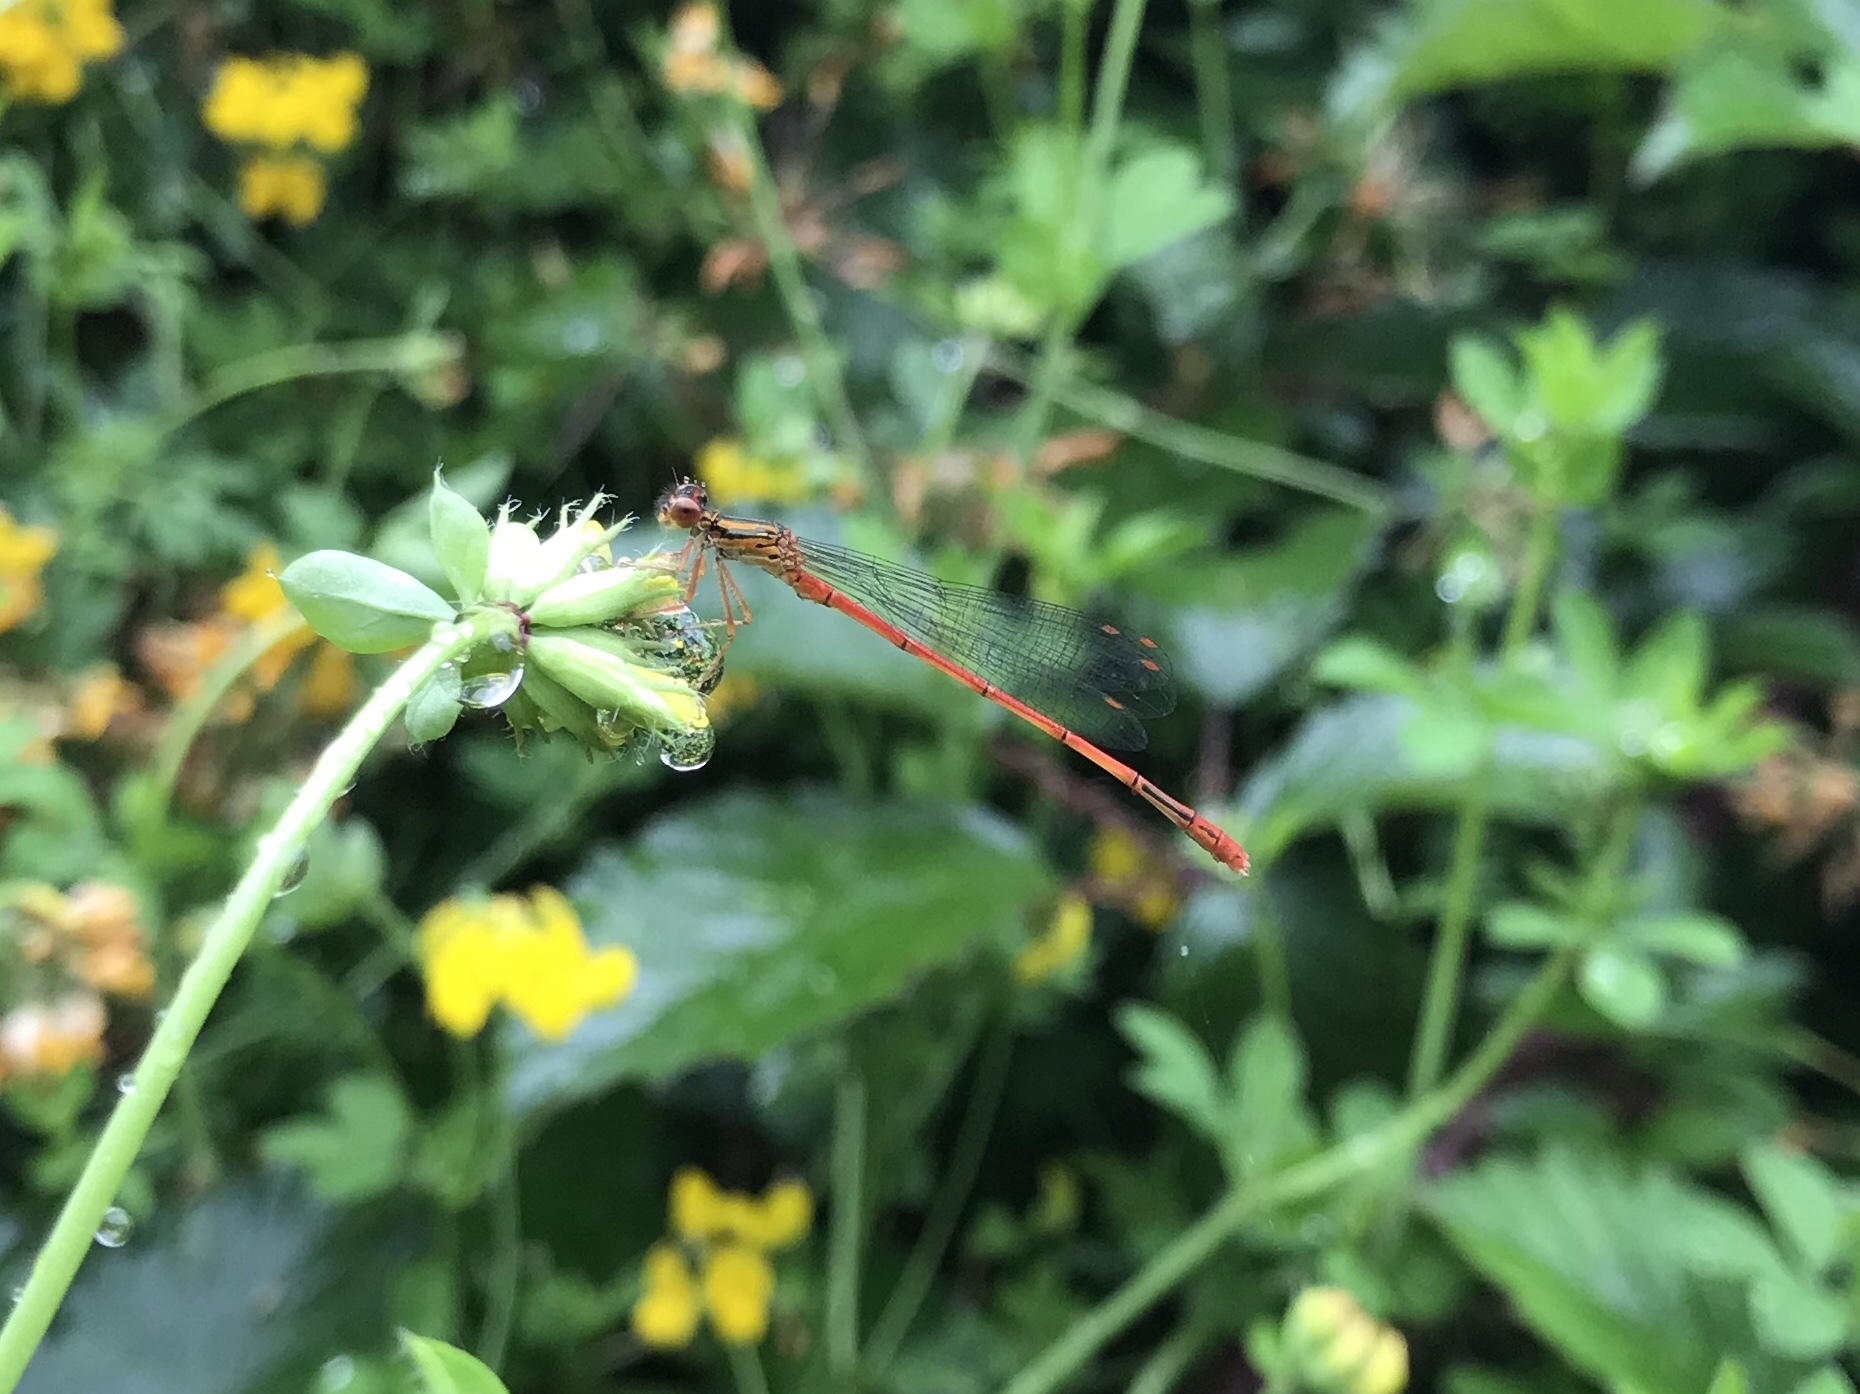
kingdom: Animalia
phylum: Arthropoda
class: Insecta
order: Odonata
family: Coenagrionidae
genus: Xanthocnemis
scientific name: Xanthocnemis zealandica
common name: Common redcoat damselfly
